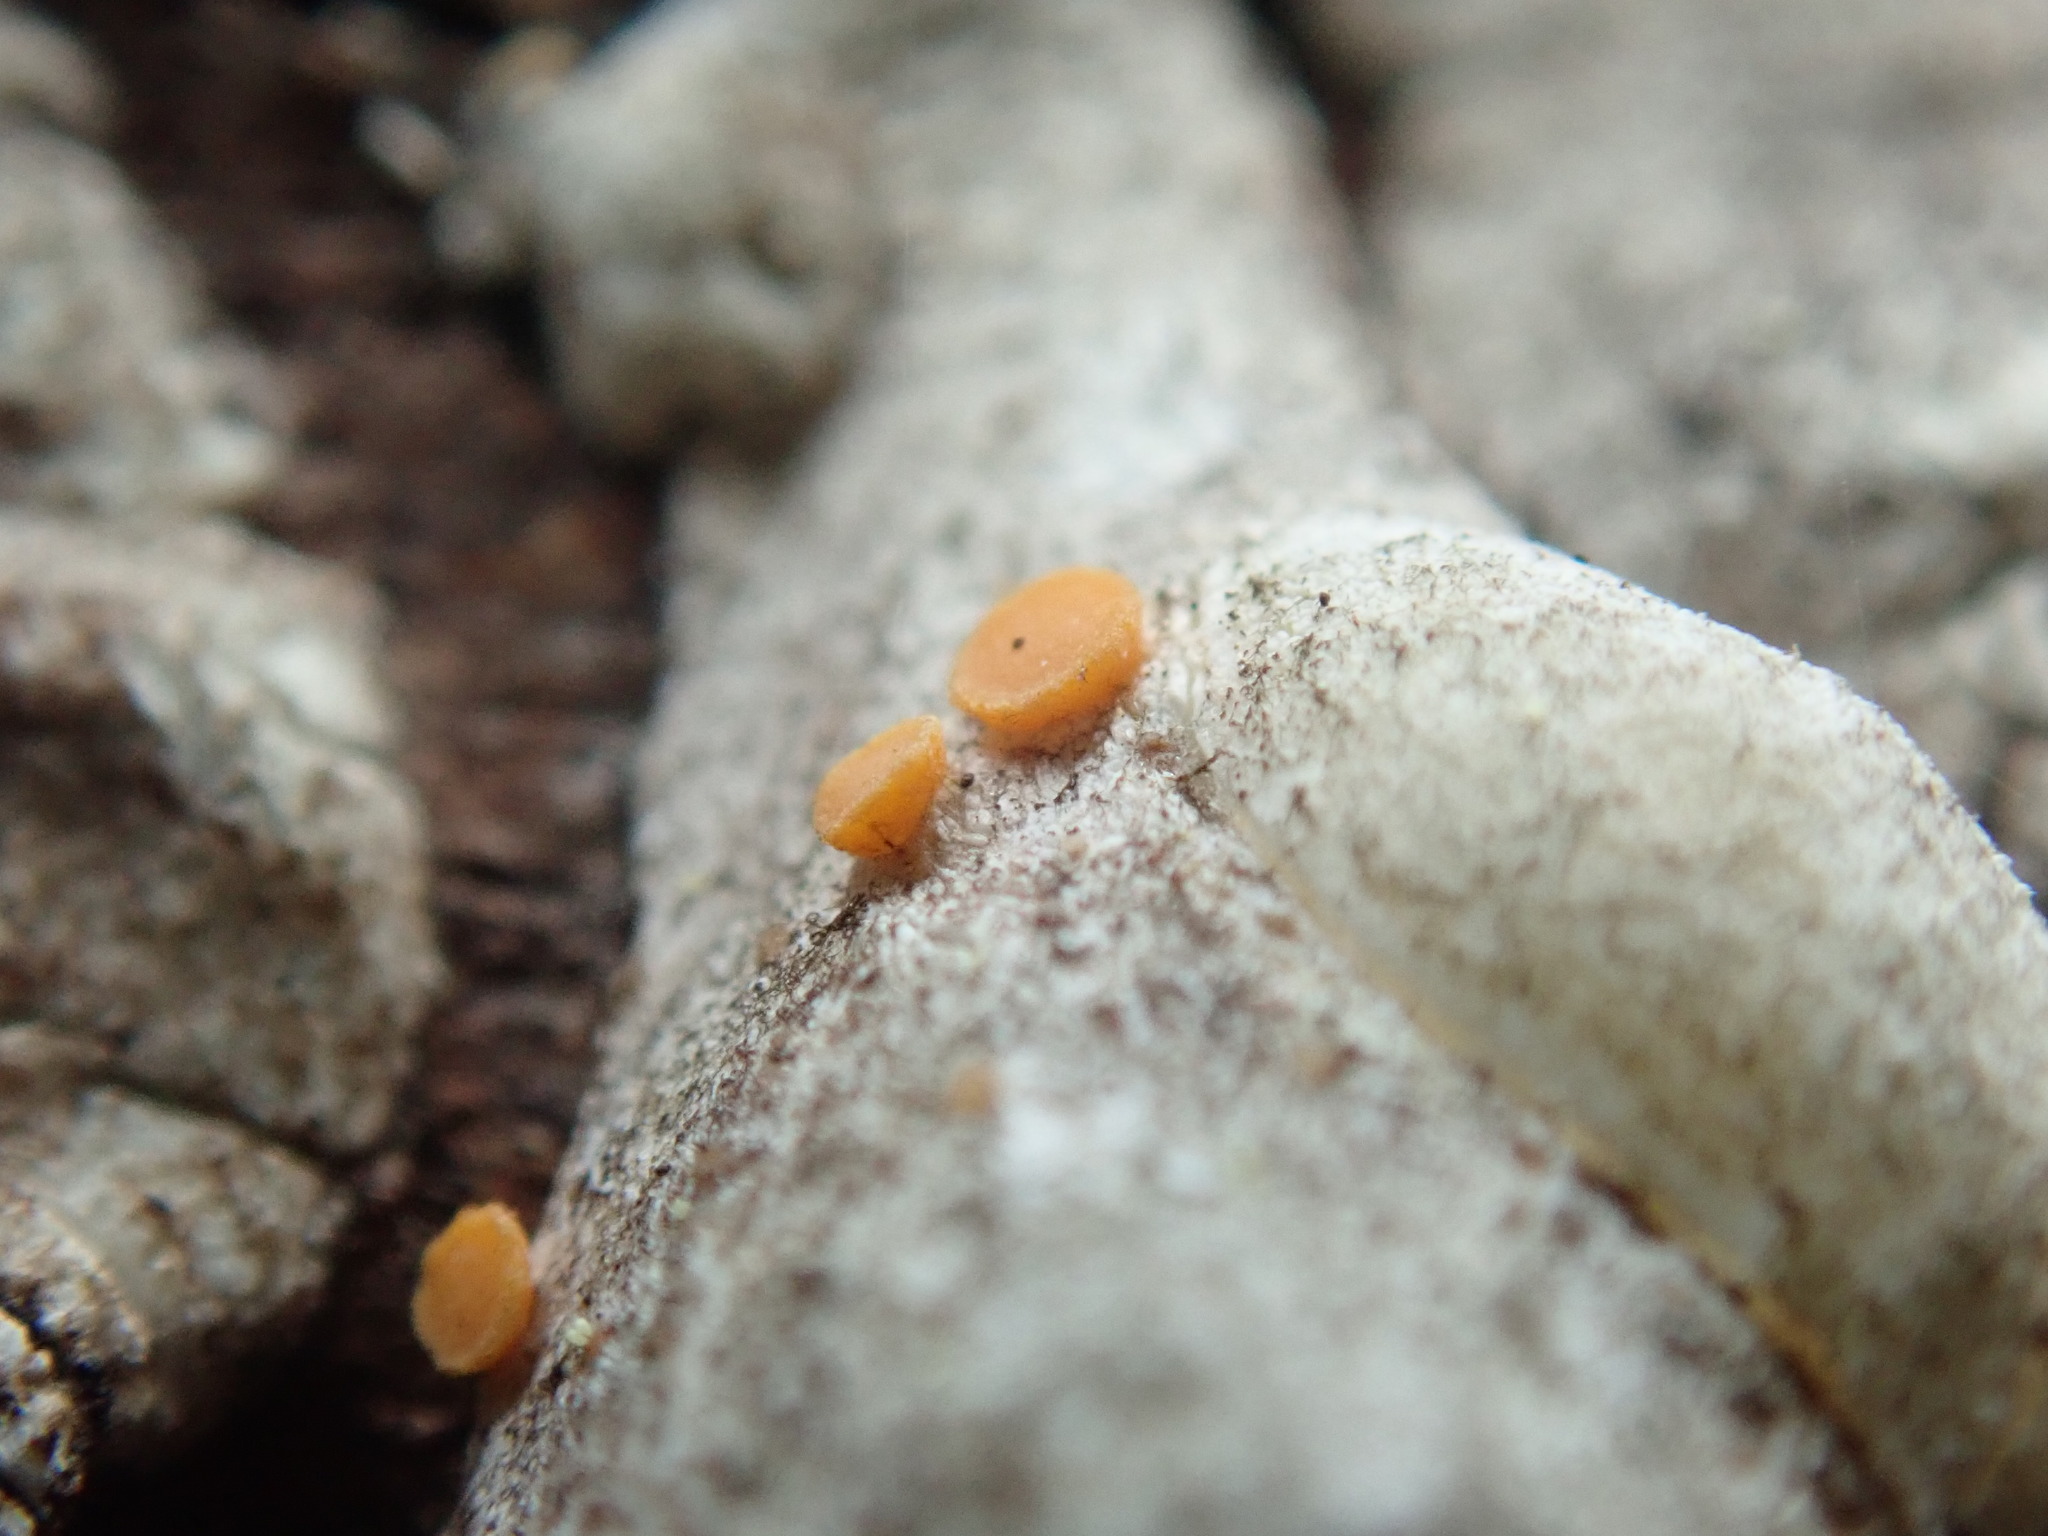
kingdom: Fungi
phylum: Ascomycota
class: Sareomycetes
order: Sareales
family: Sareaceae
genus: Sarea
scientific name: Sarea resinae
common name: Sarea lichen
